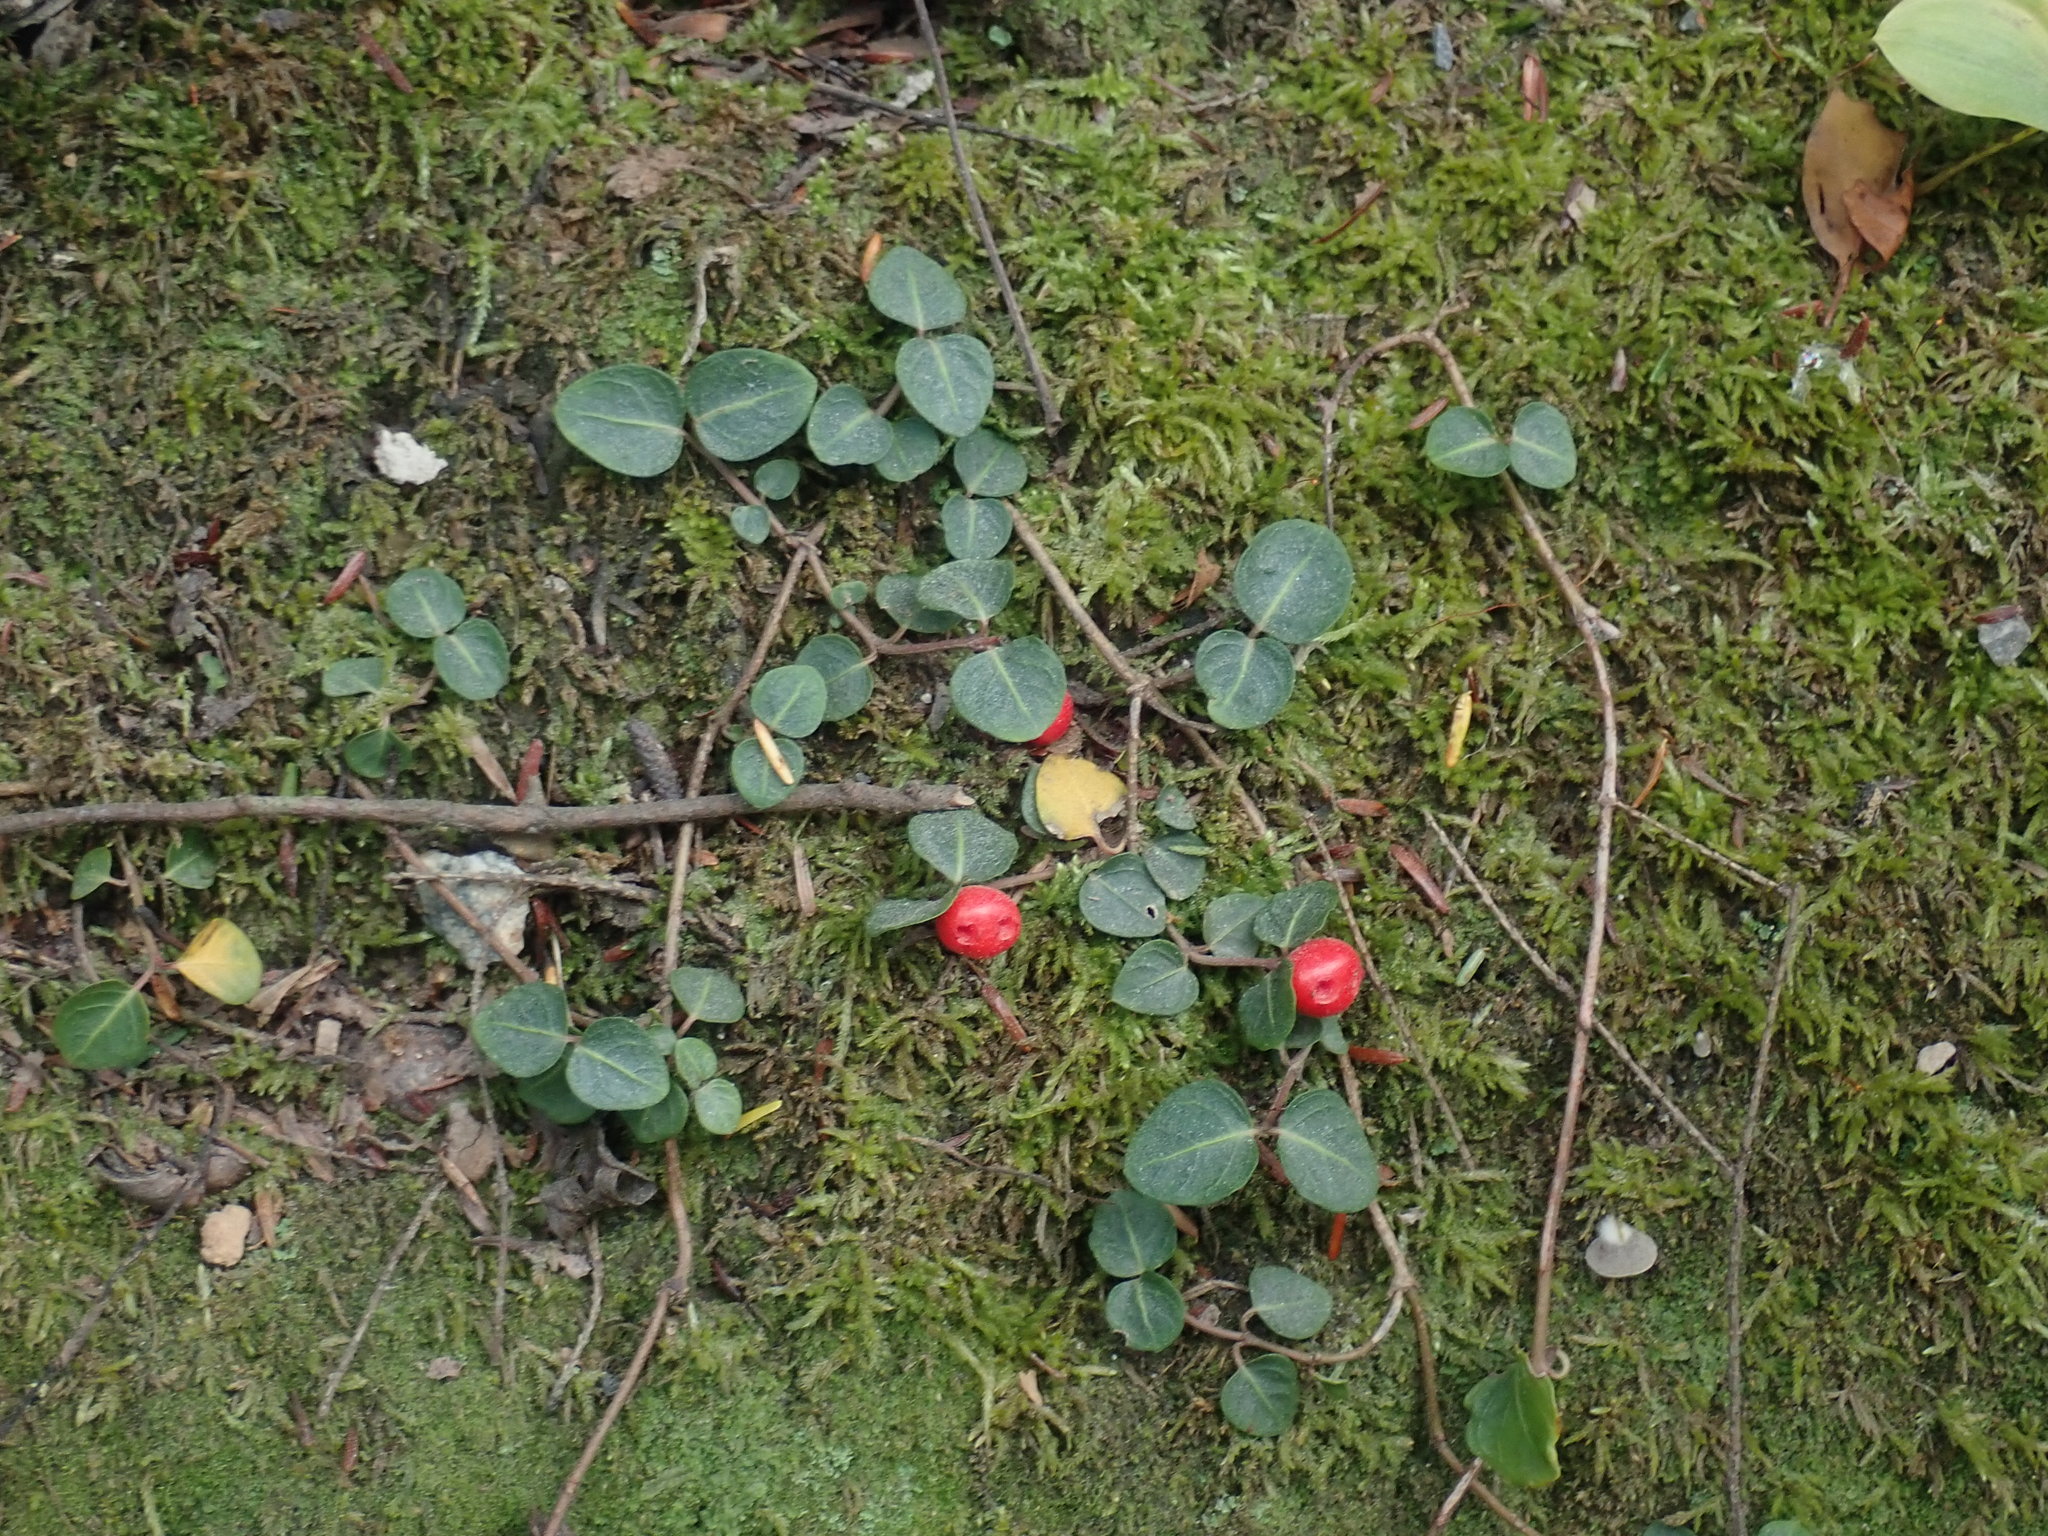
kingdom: Plantae
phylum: Tracheophyta
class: Magnoliopsida
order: Gentianales
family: Rubiaceae
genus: Mitchella
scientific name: Mitchella repens
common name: Partridge-berry
